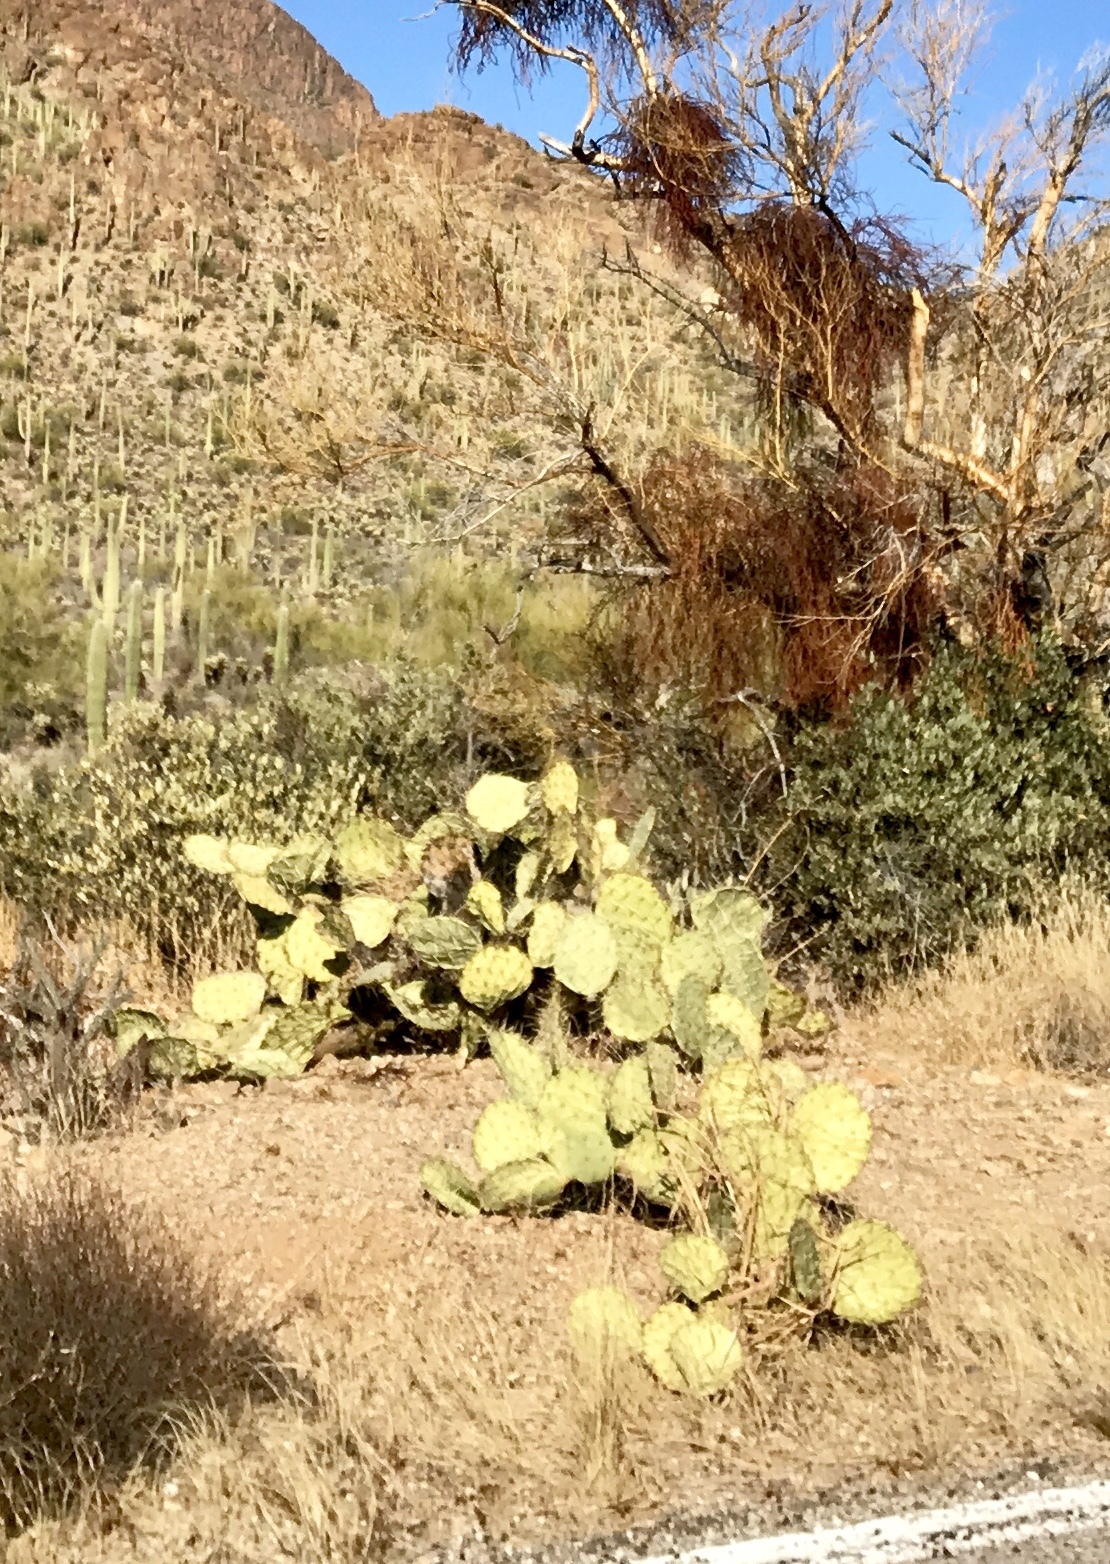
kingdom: Plantae
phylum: Tracheophyta
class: Magnoliopsida
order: Caryophyllales
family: Cactaceae
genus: Opuntia
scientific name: Opuntia engelmannii
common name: Cactus-apple
